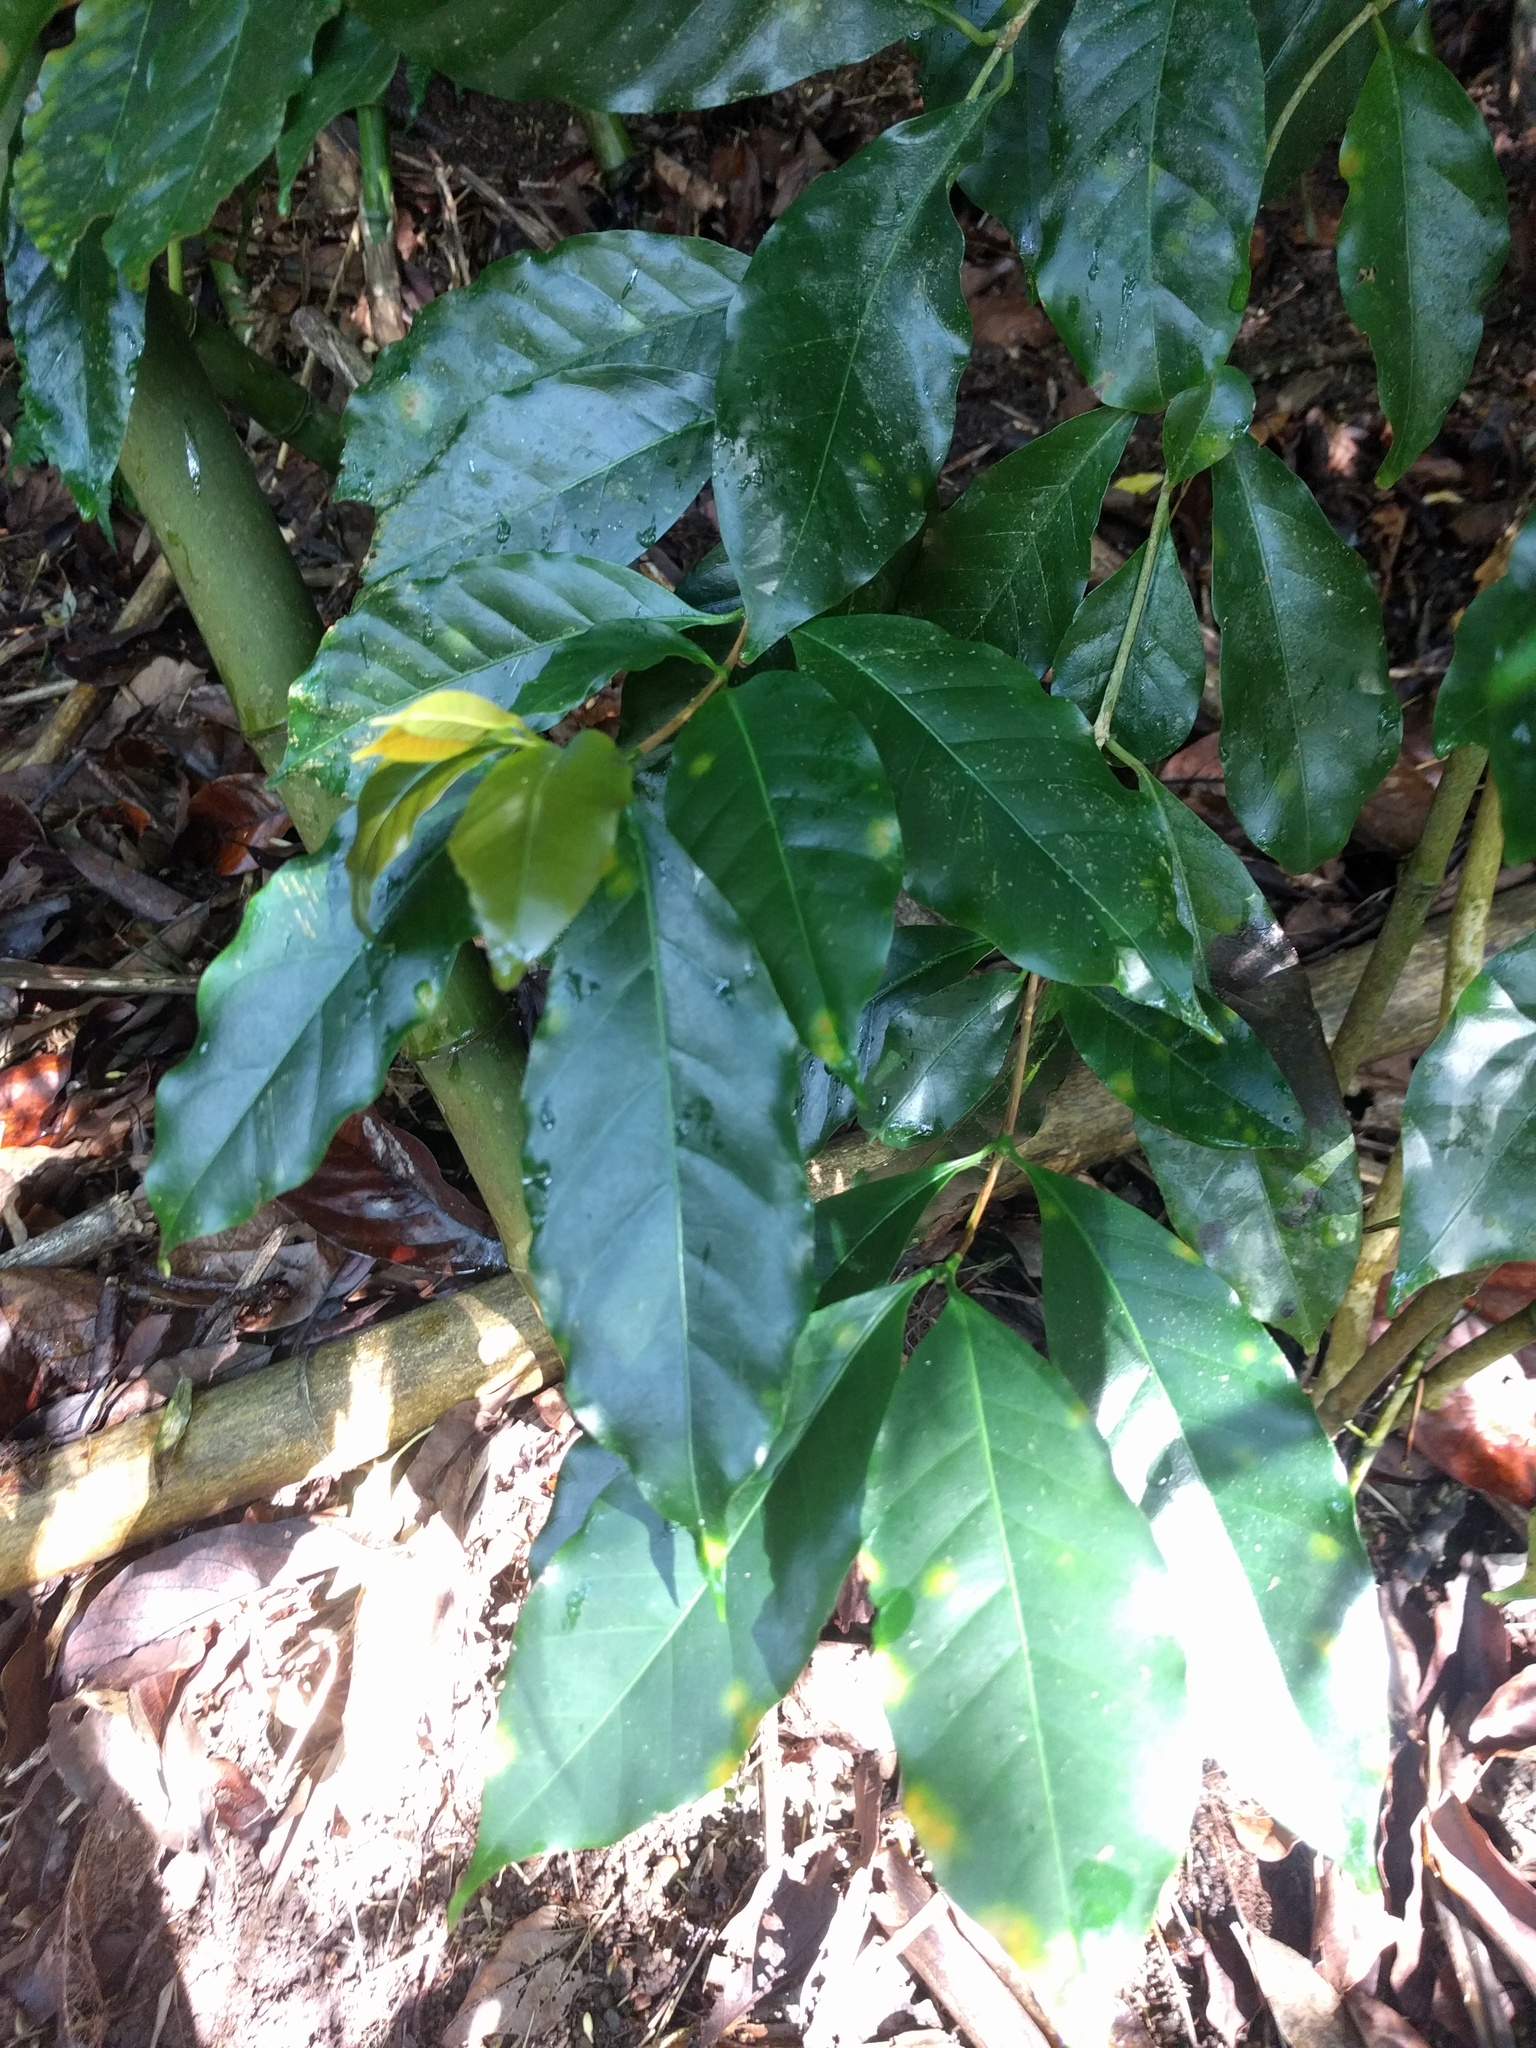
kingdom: Plantae
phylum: Tracheophyta
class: Magnoliopsida
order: Gentianales
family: Rubiaceae
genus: Coffea
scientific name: Coffea arabica
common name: Coffee
